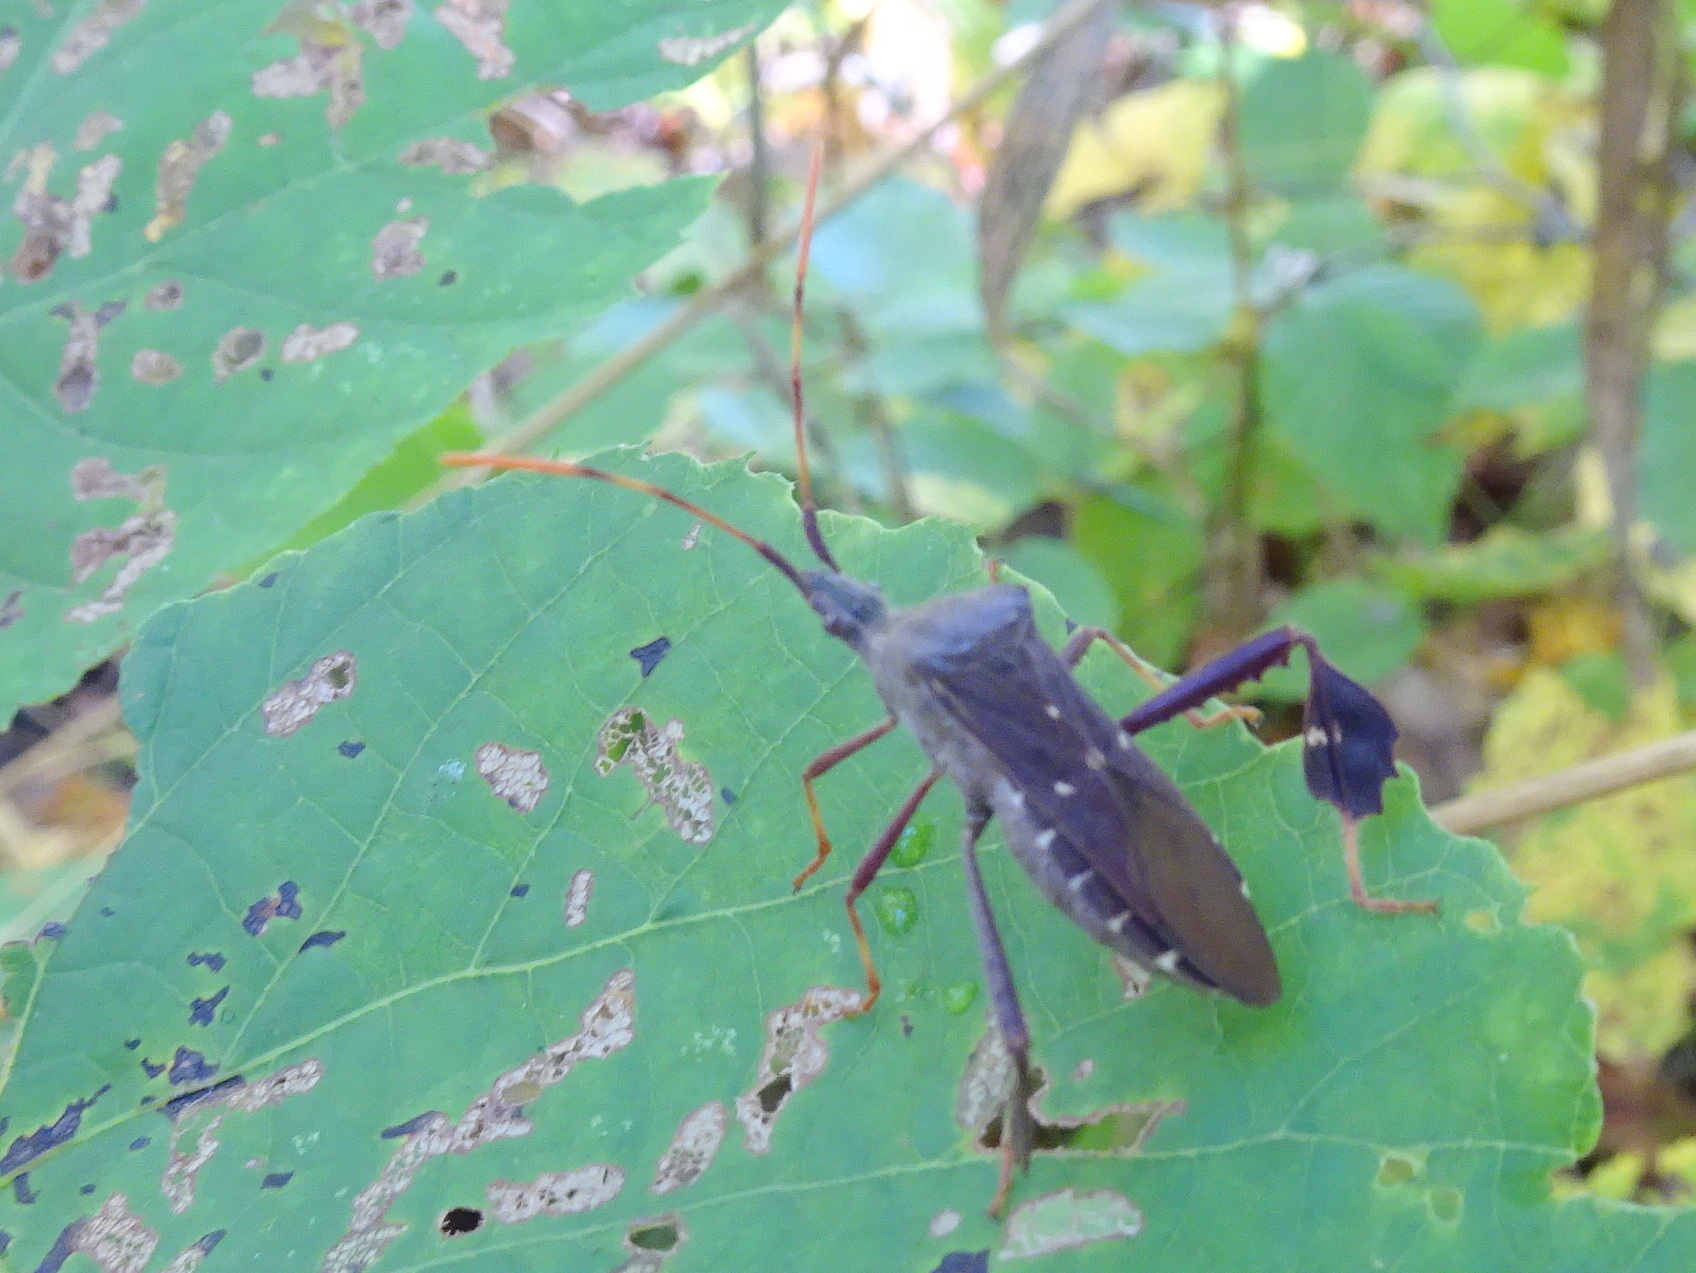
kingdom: Animalia
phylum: Arthropoda
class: Insecta
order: Hemiptera
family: Coreidae
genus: Leptoglossus
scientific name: Leptoglossus oppositus
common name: Northern leaf-footed bug
